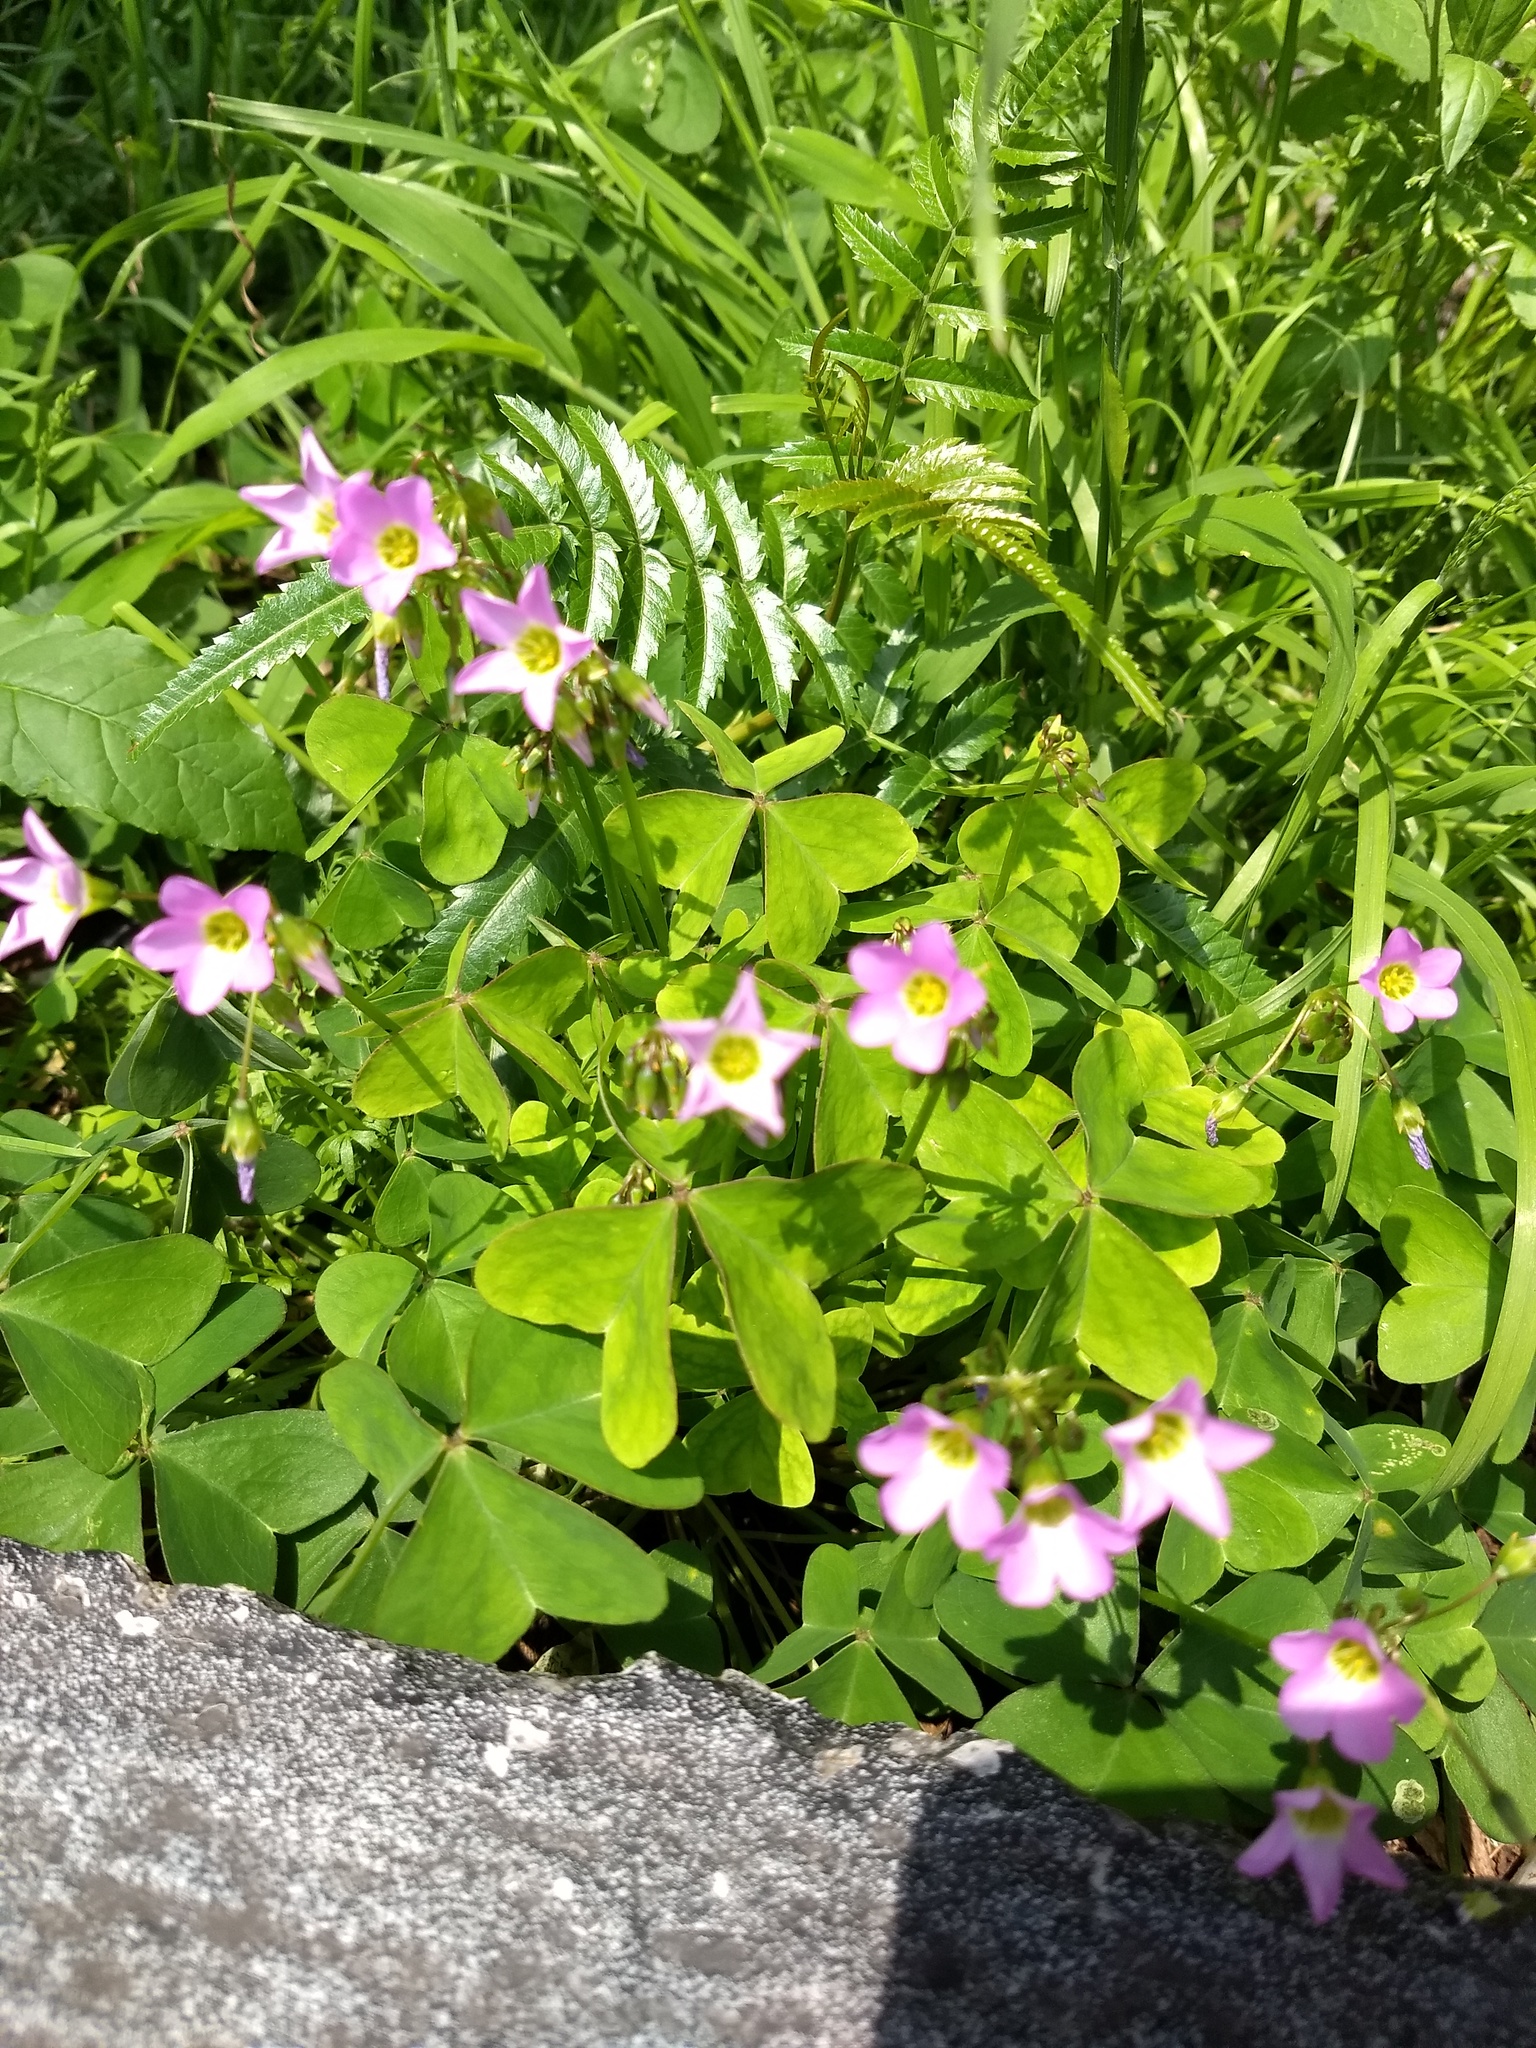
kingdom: Plantae
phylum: Tracheophyta
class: Magnoliopsida
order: Oxalidales
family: Oxalidaceae
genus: Oxalis
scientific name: Oxalis latifolia
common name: Garden pink-sorrel
